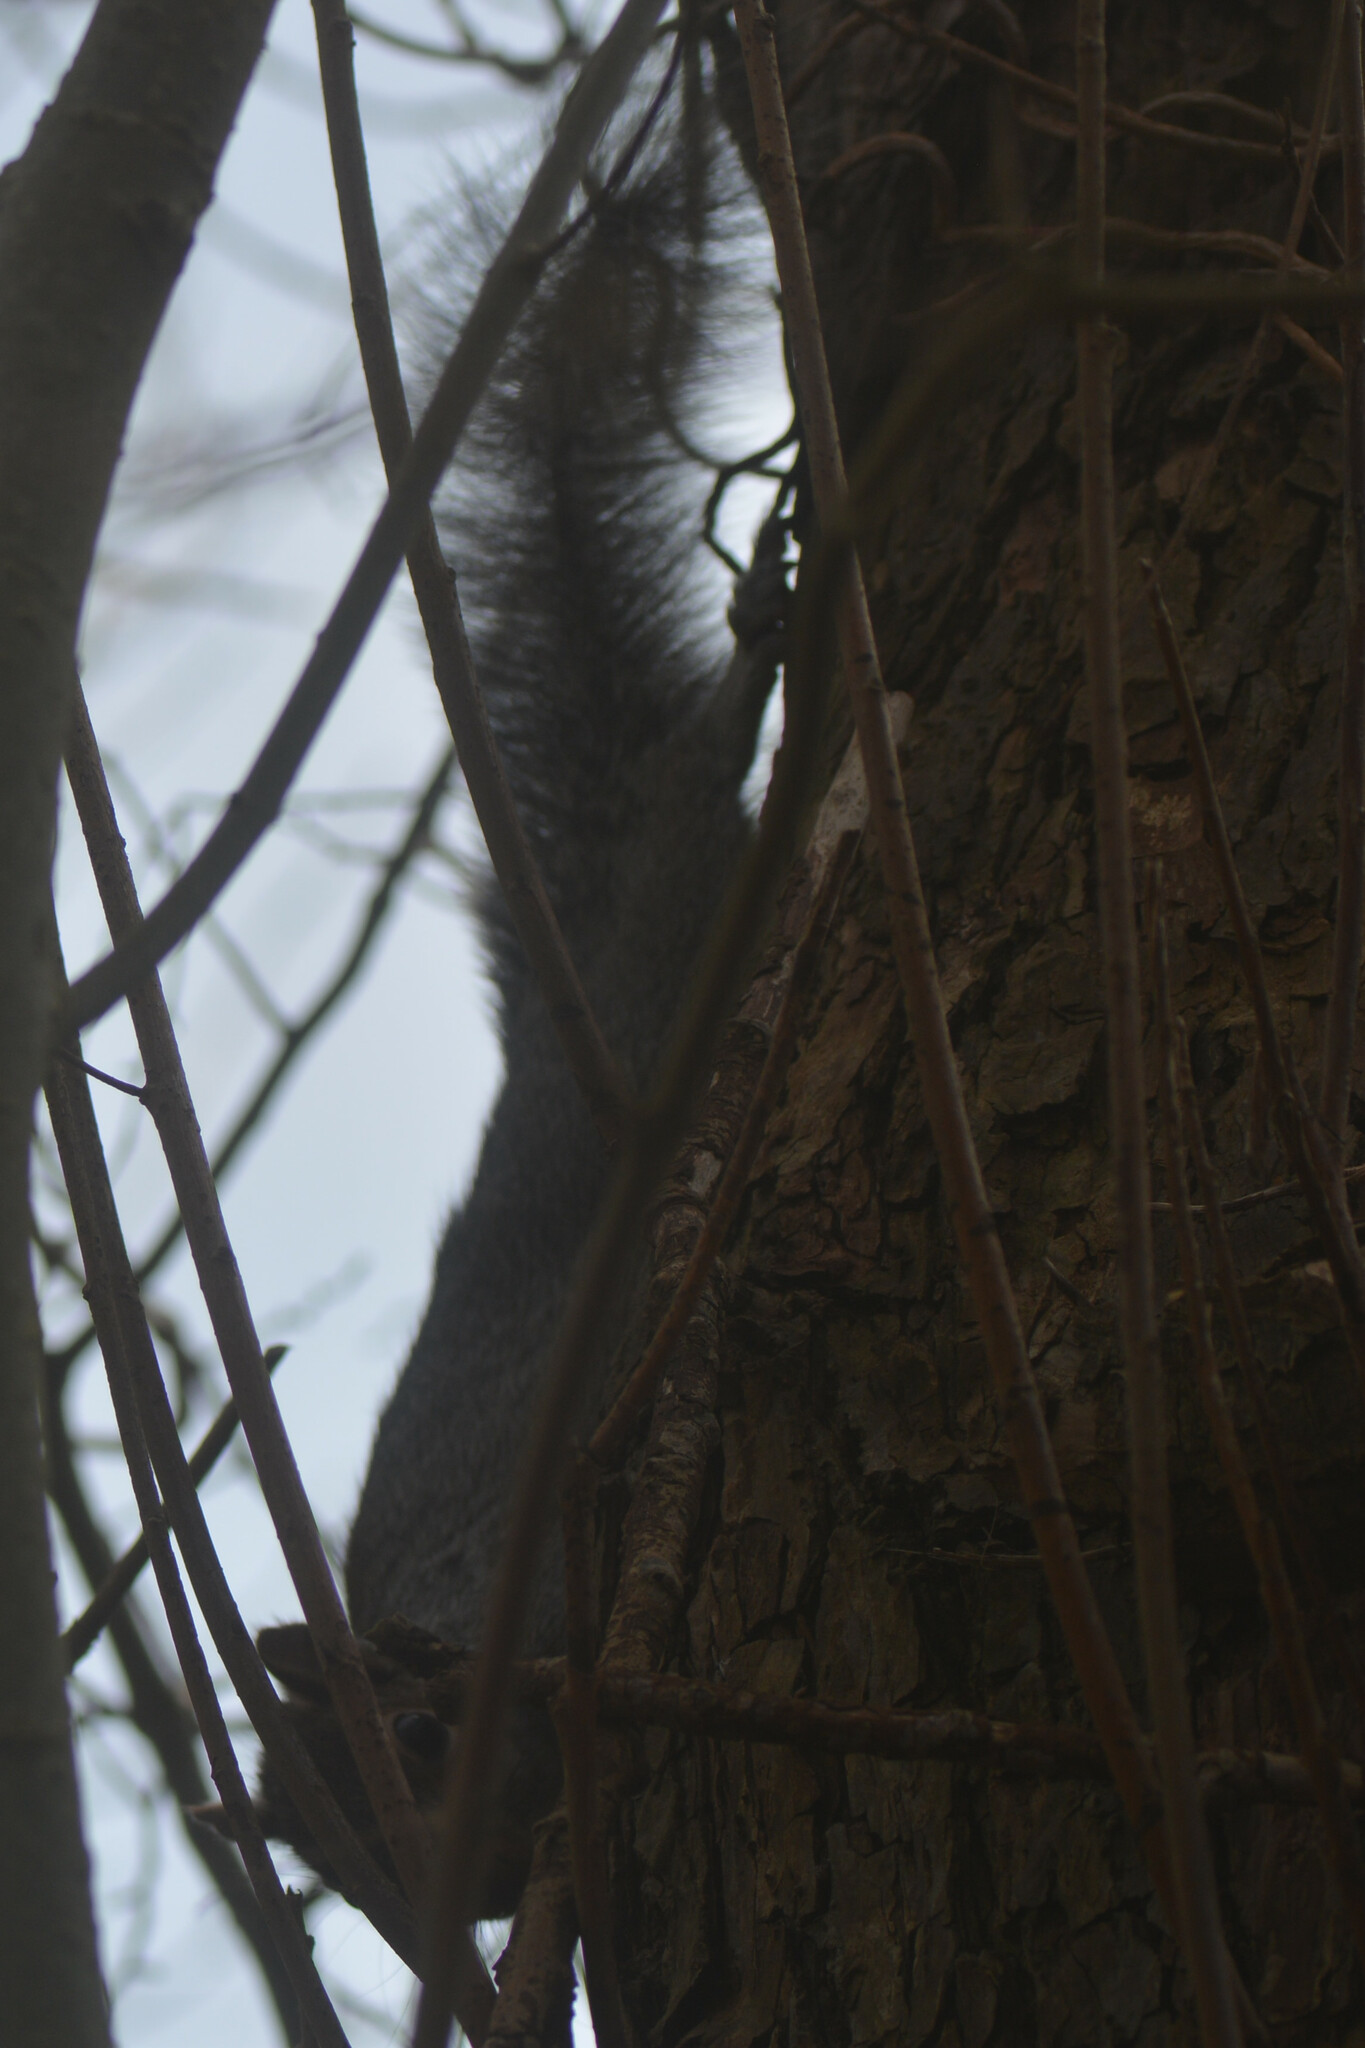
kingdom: Animalia
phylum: Chordata
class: Mammalia
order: Rodentia
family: Sciuridae
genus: Sciurus
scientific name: Sciurus carolinensis
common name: Eastern gray squirrel
